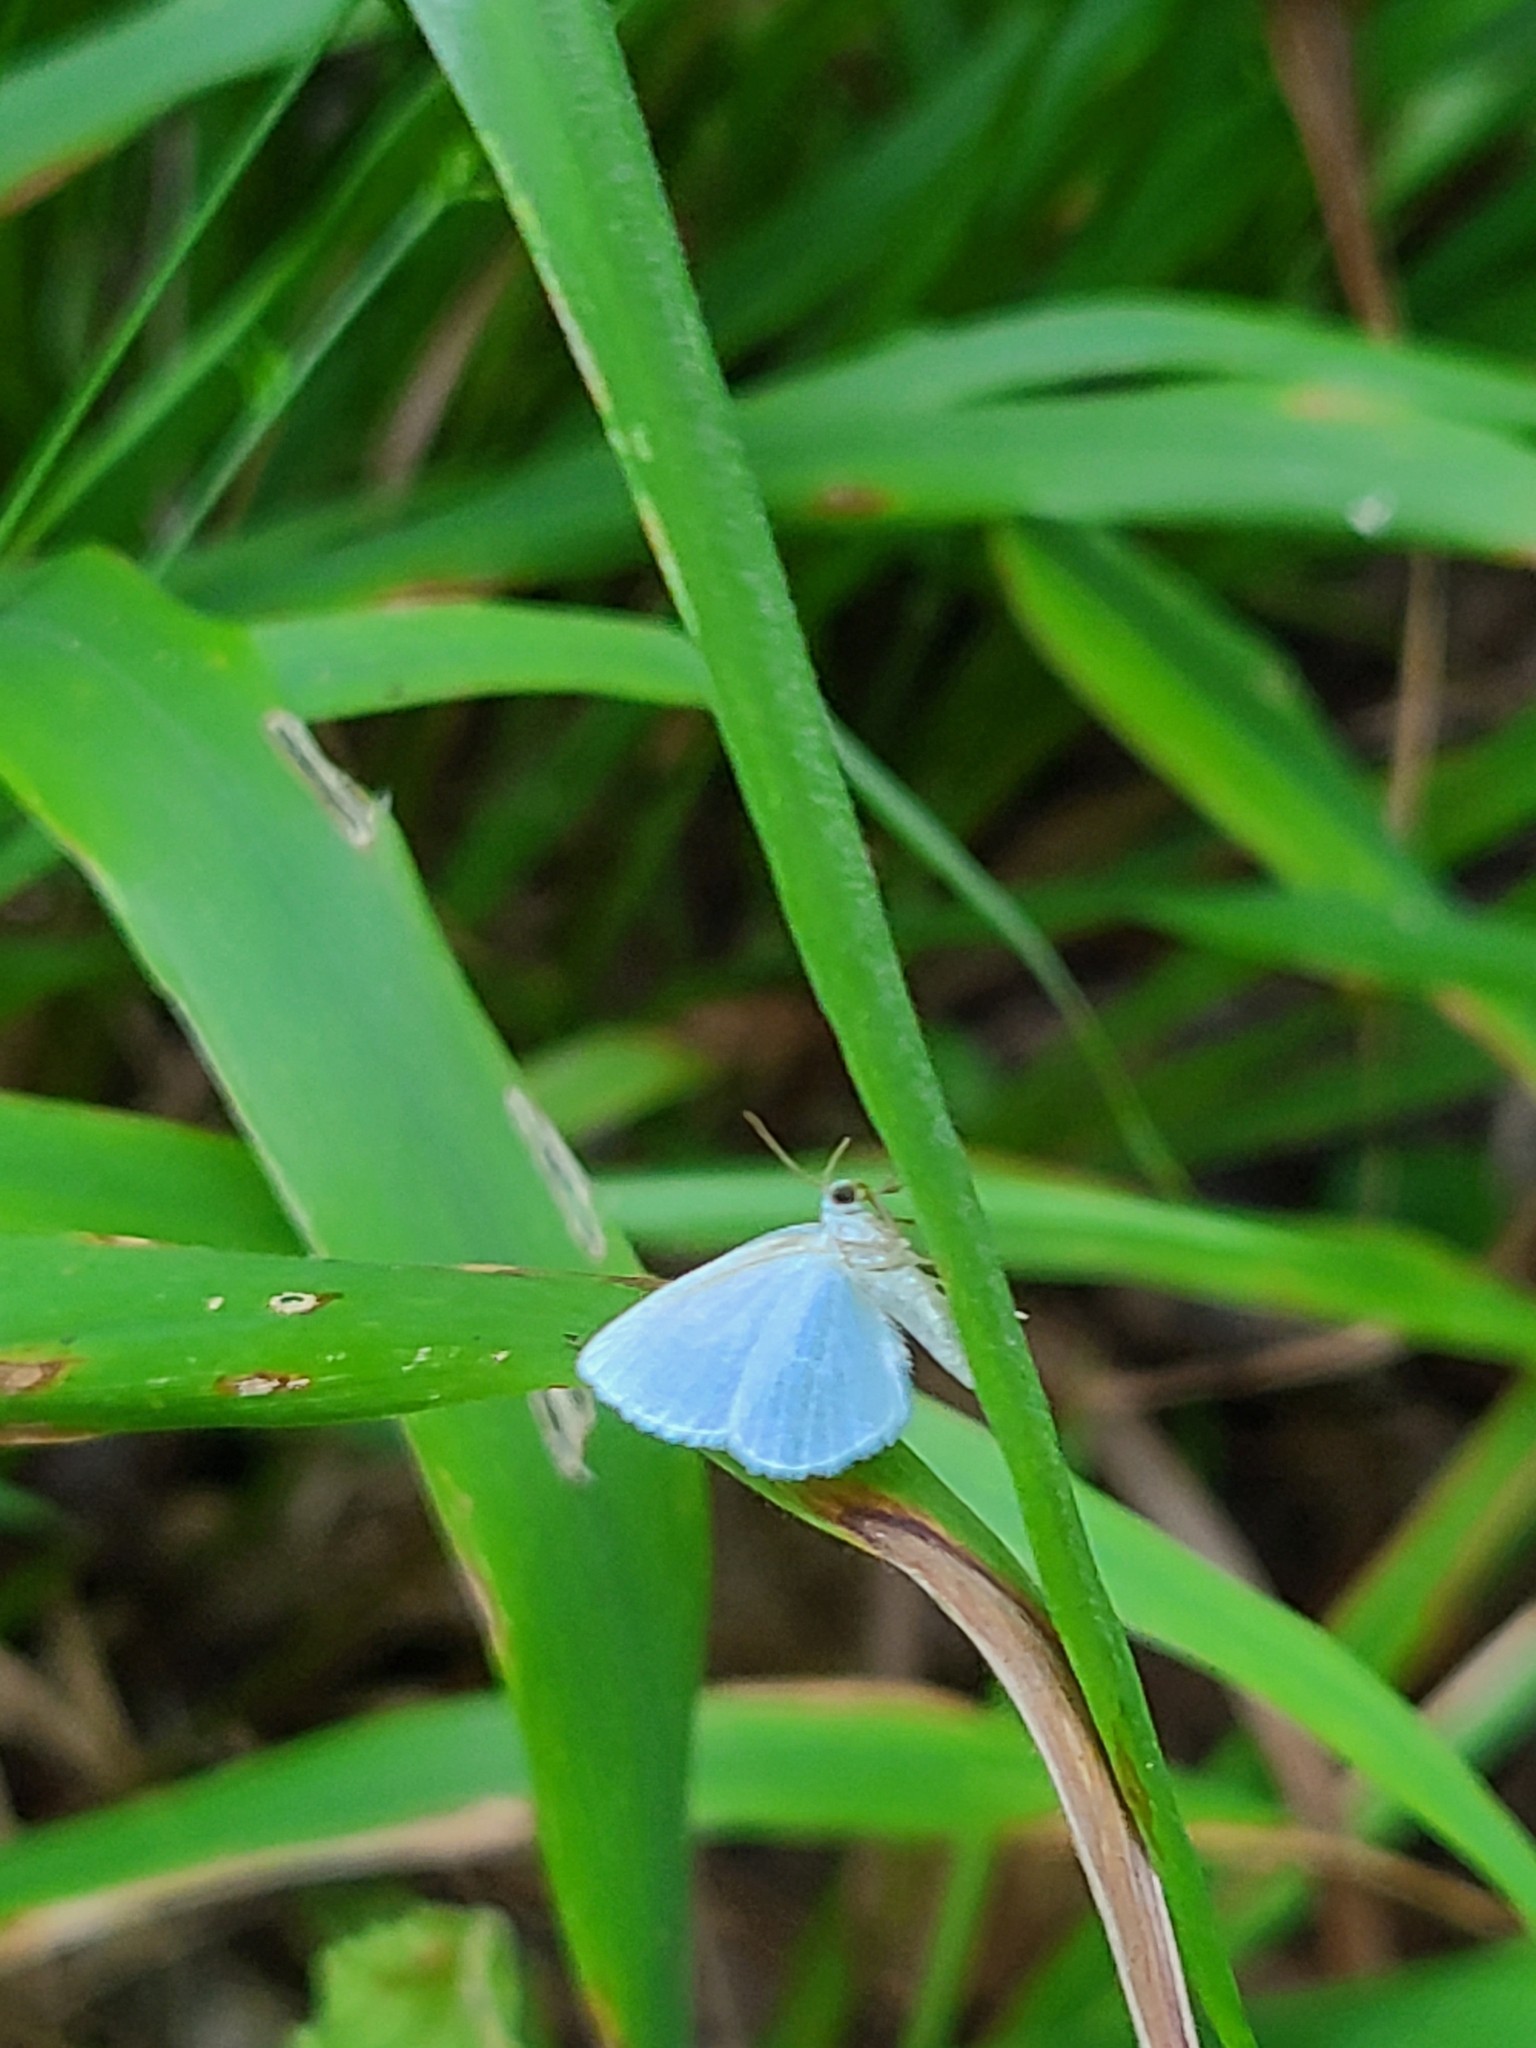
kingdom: Animalia
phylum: Arthropoda
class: Insecta
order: Lepidoptera
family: Geometridae
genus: Lomographa
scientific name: Lomographa vestaliata
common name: White spring moth
